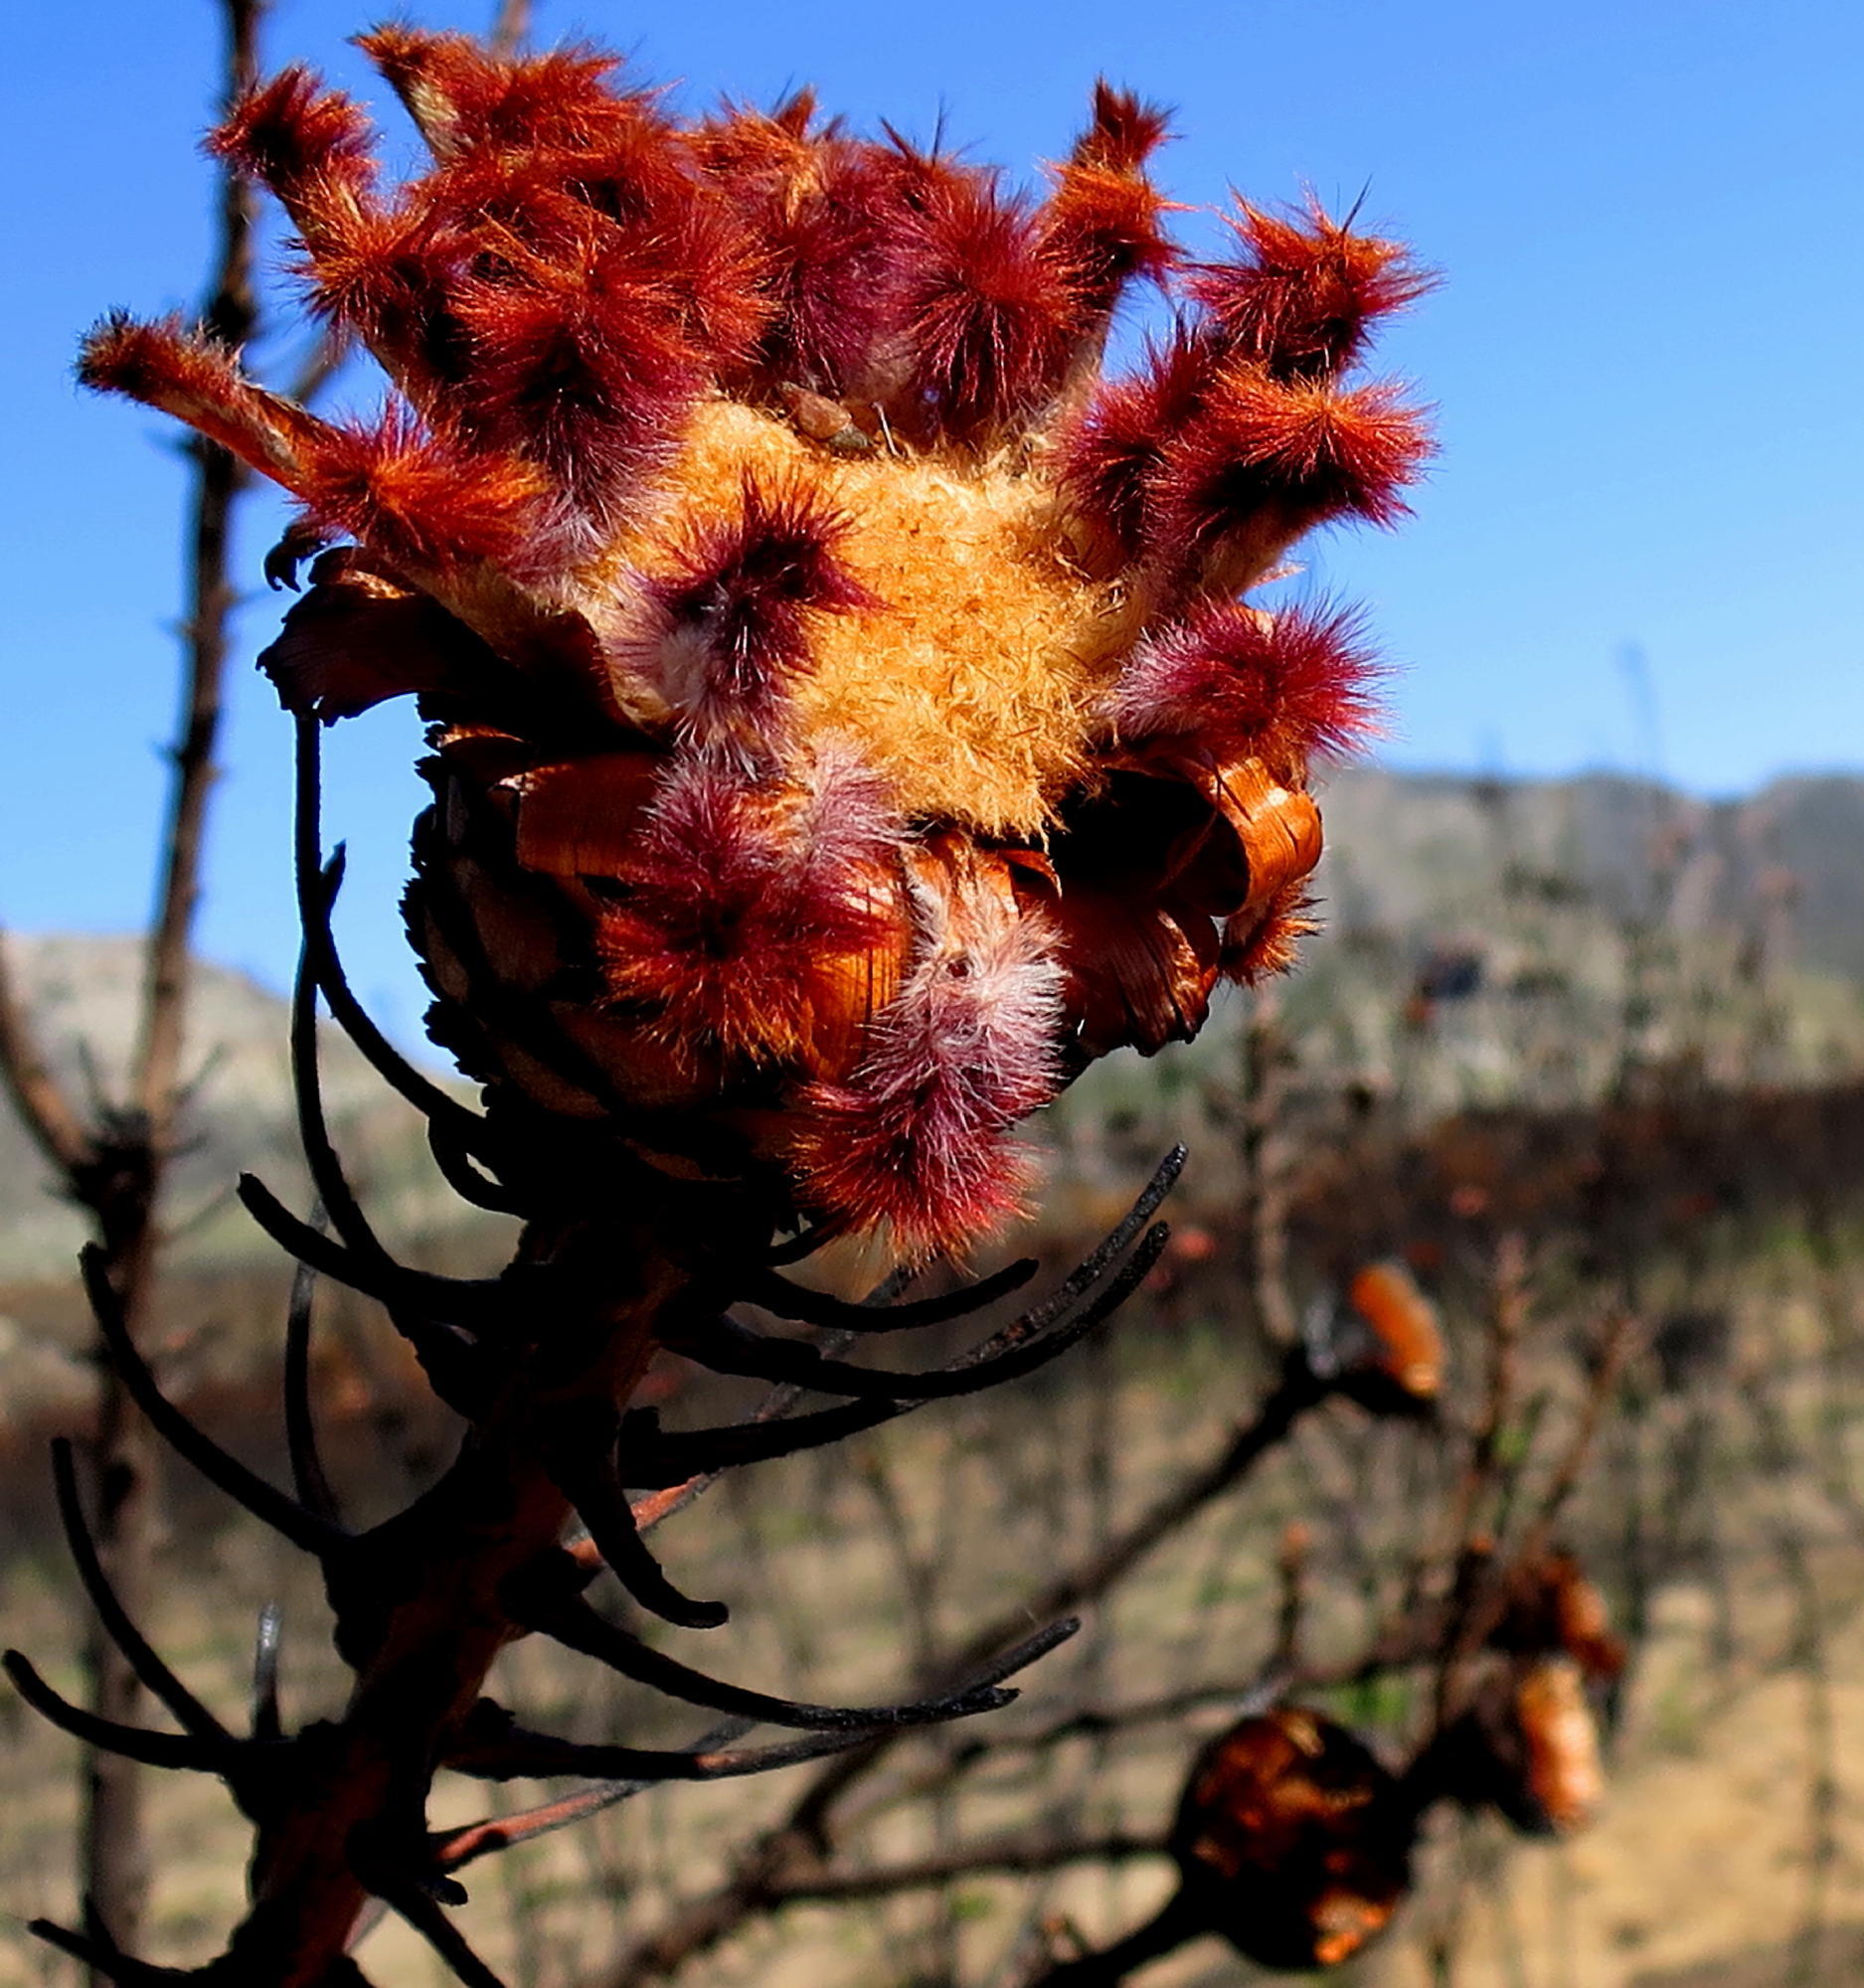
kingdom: Plantae
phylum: Tracheophyta
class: Magnoliopsida
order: Proteales
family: Proteaceae
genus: Protea
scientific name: Protea neriifolia
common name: Blue sugarbush
